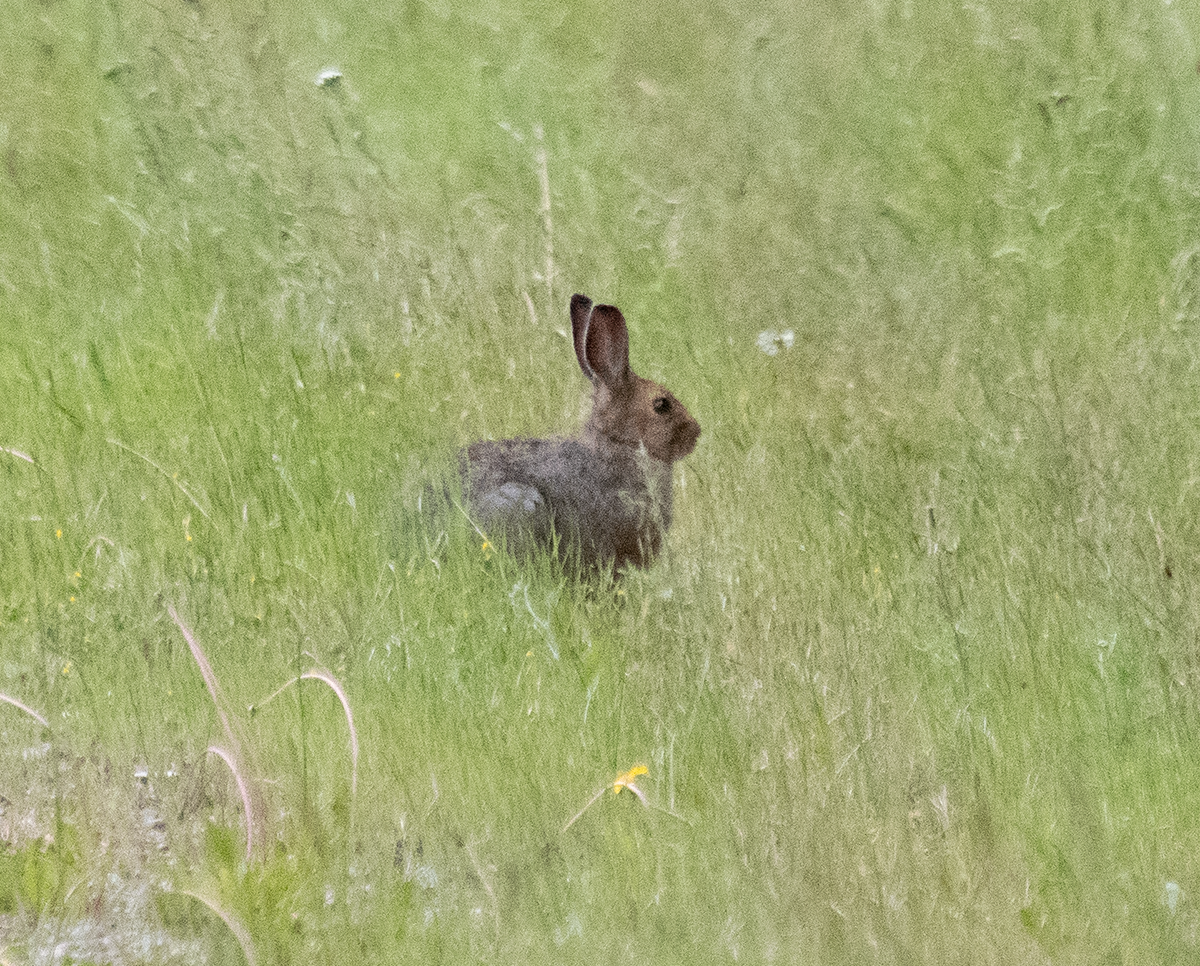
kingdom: Animalia
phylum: Chordata
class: Mammalia
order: Lagomorpha
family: Leporidae
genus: Lepus
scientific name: Lepus americanus
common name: Snowshoe hare
